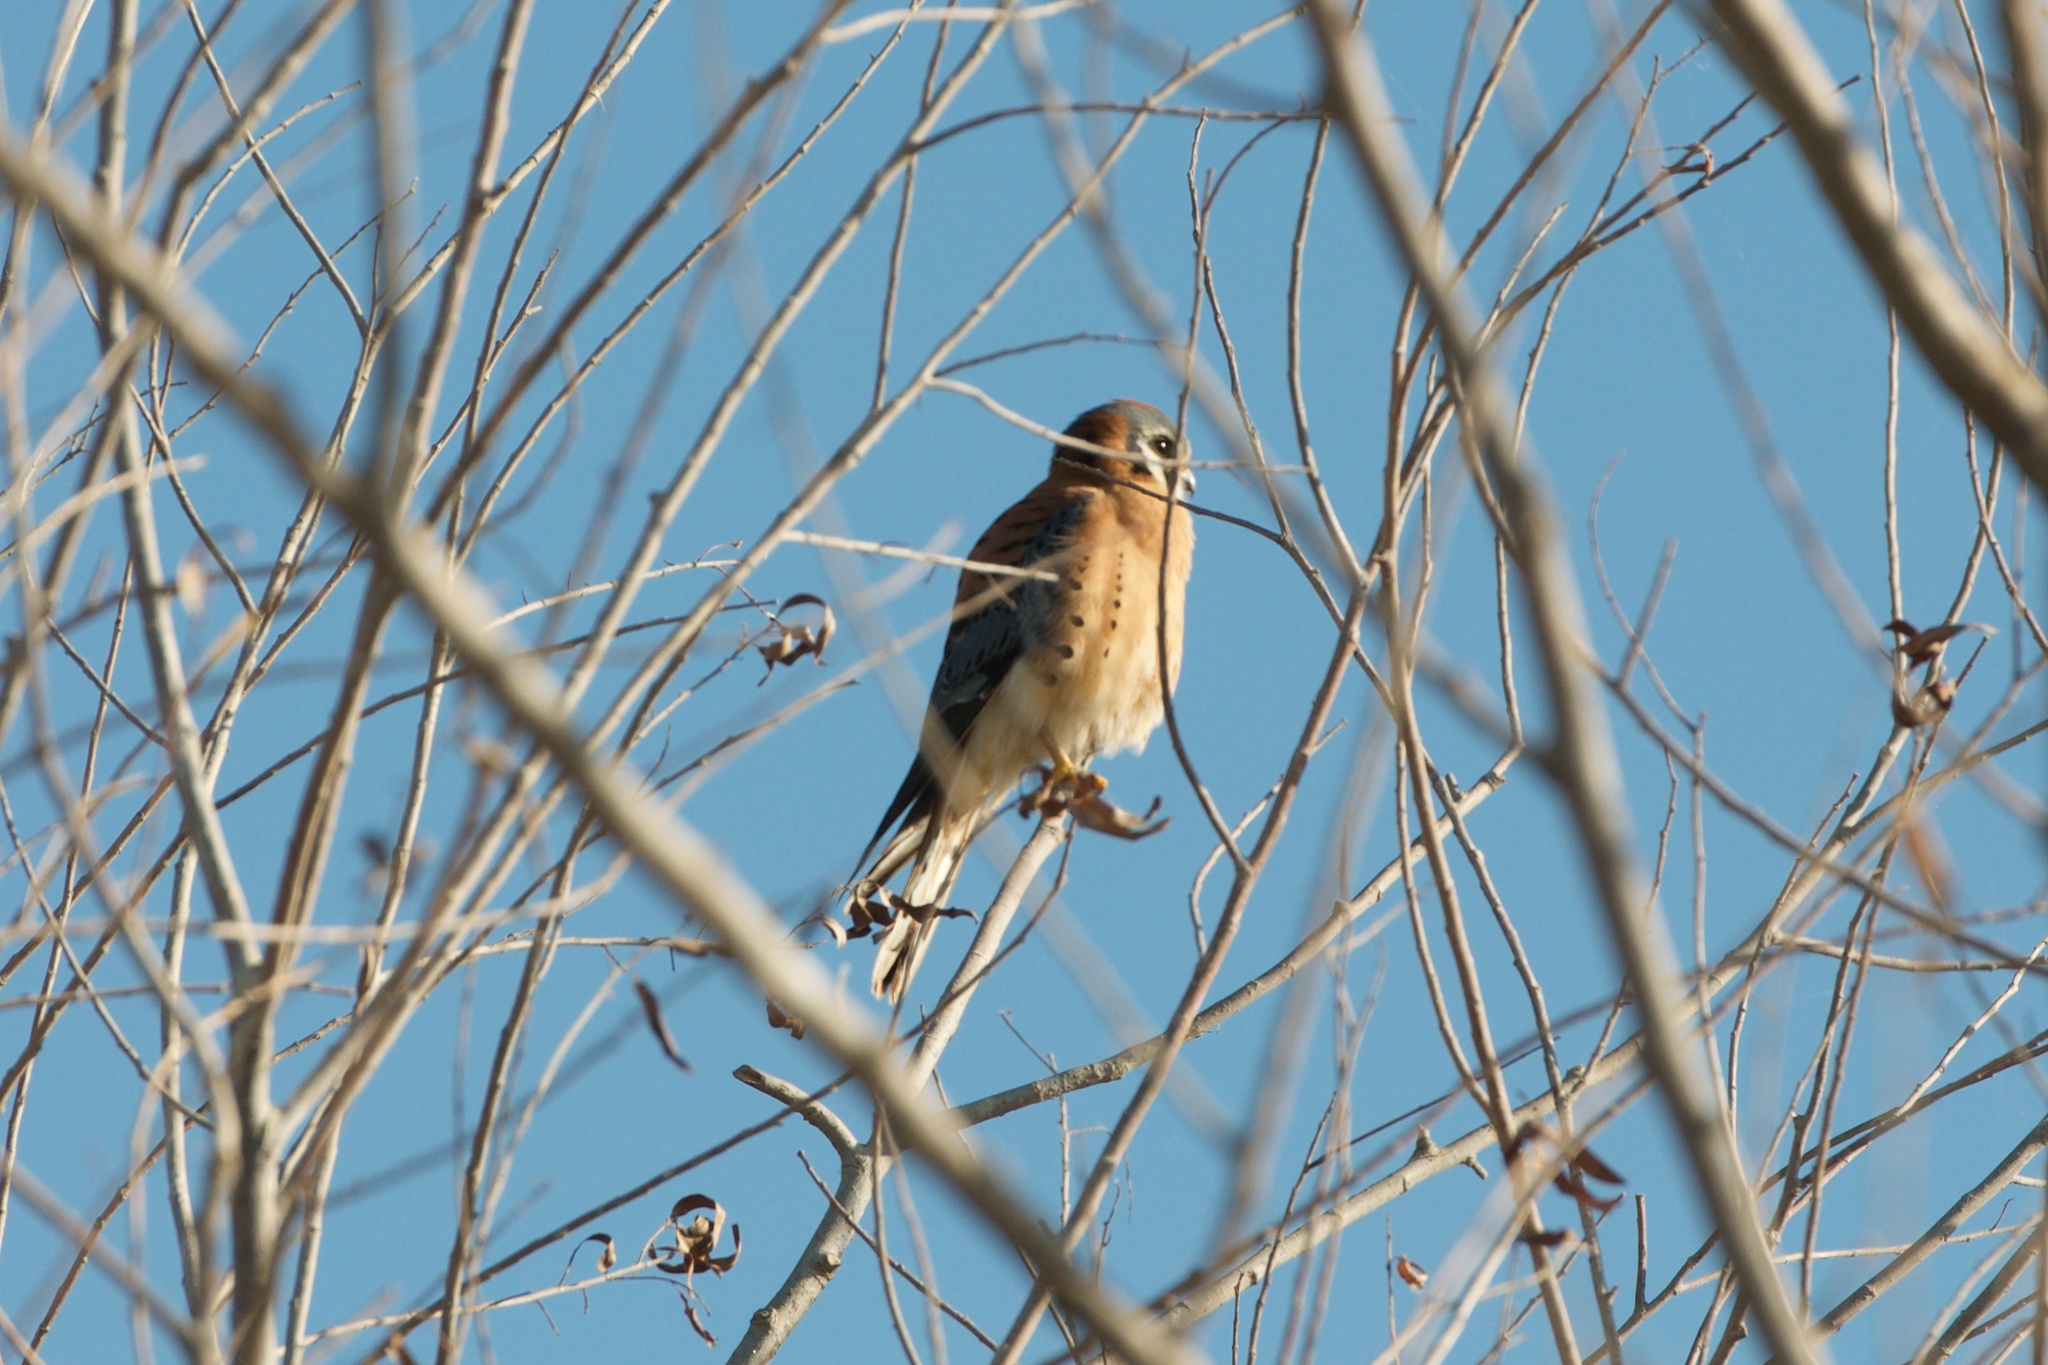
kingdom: Animalia
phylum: Chordata
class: Aves
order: Falconiformes
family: Falconidae
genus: Falco
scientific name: Falco sparverius
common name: American kestrel
